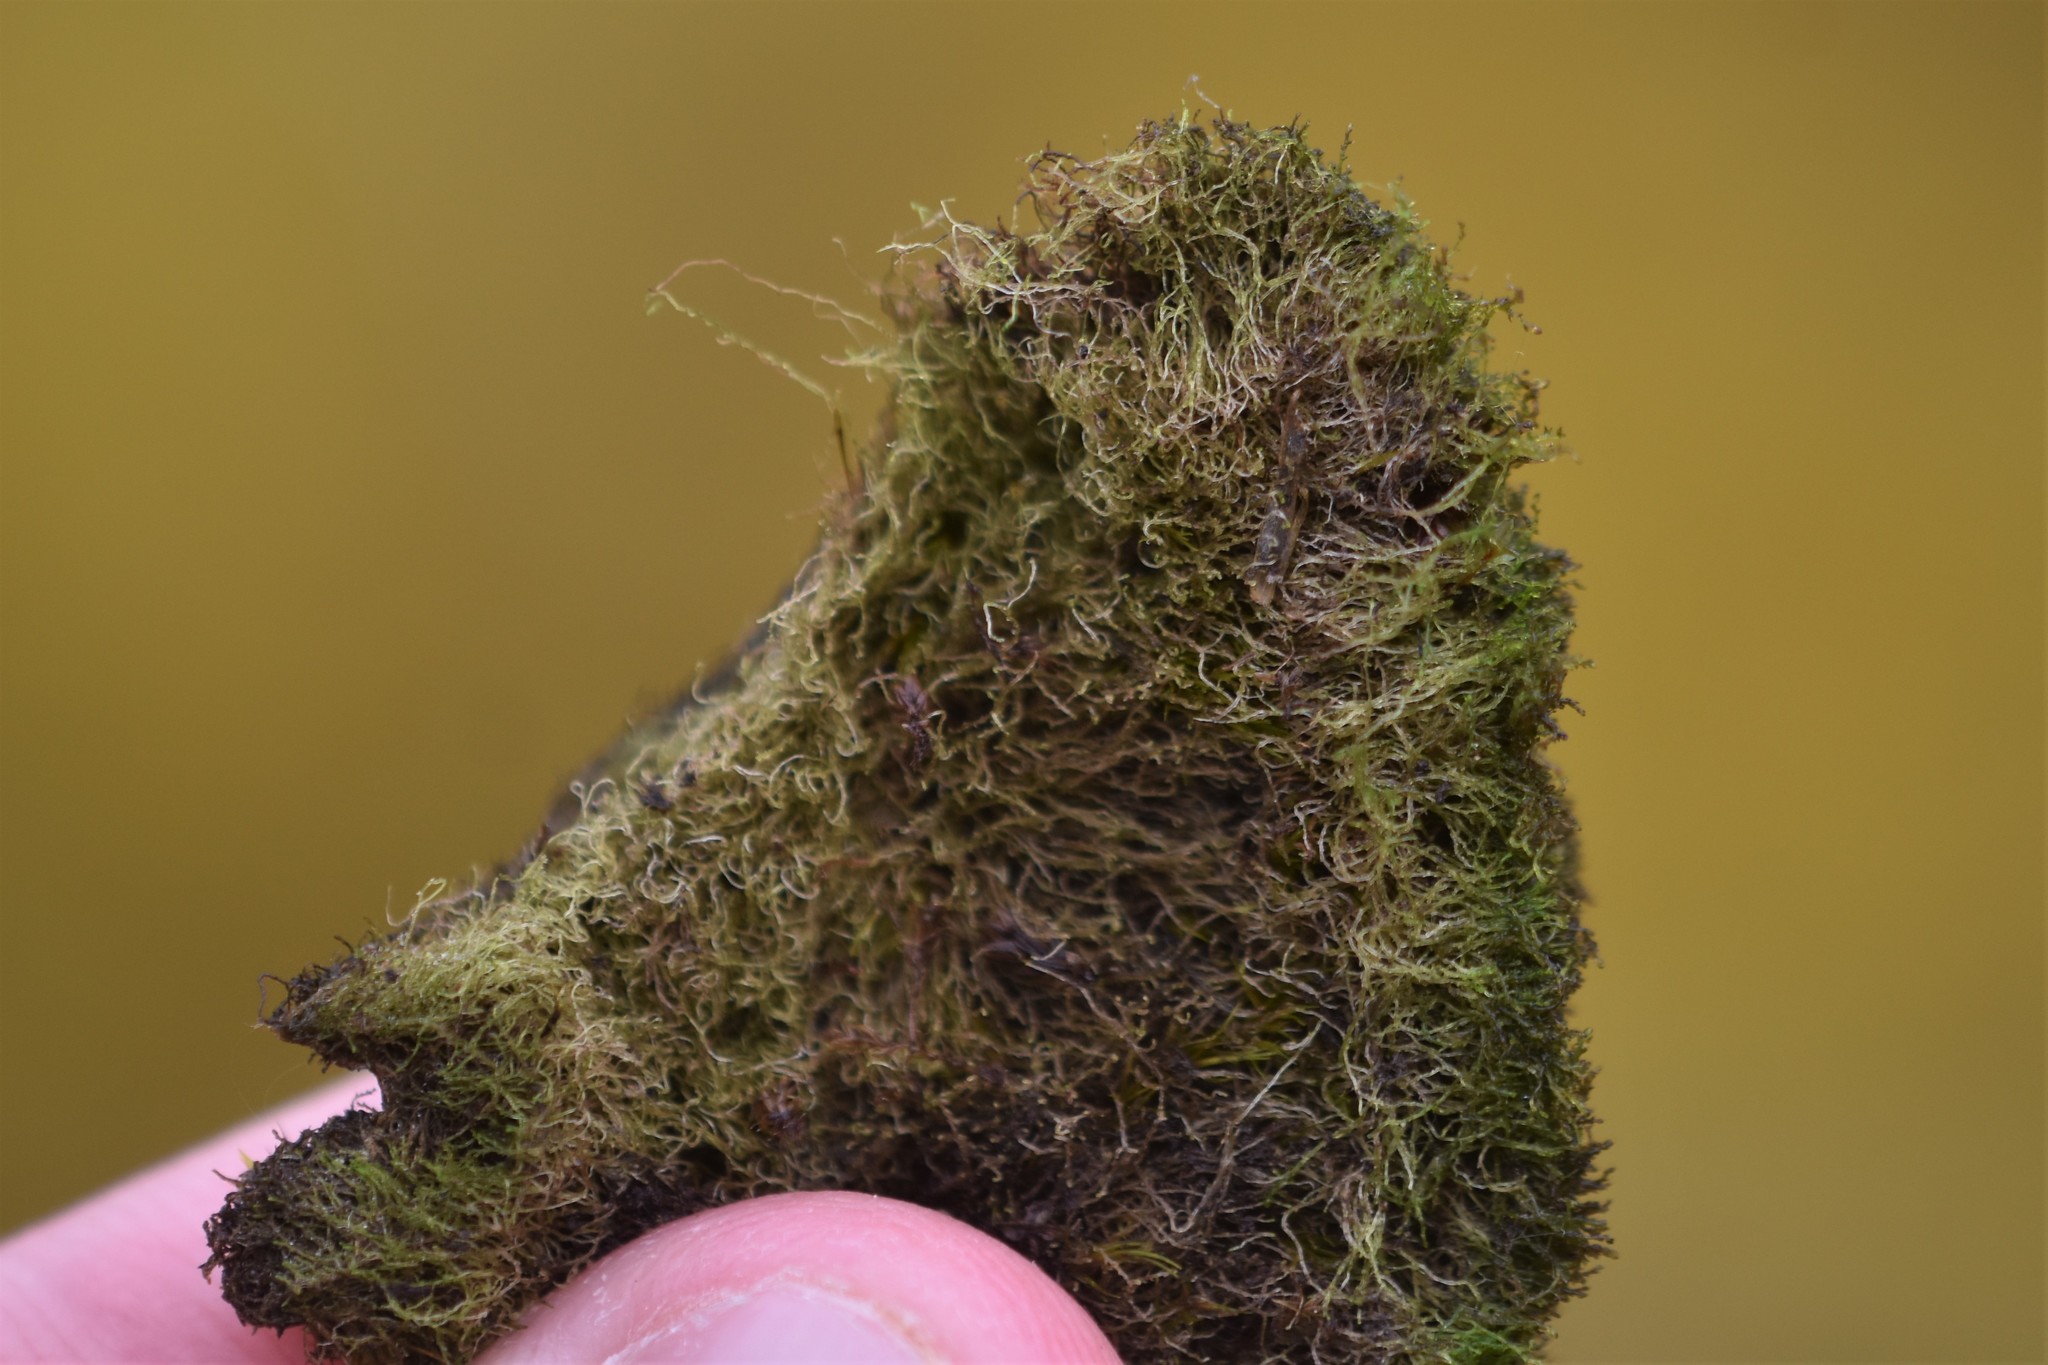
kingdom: Plantae
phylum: Marchantiophyta
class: Jungermanniopsida
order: Jungermanniales
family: Cephaloziellaceae
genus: Cephaloziella
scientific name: Cephaloziella divaricata
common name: Spreading threadwort
